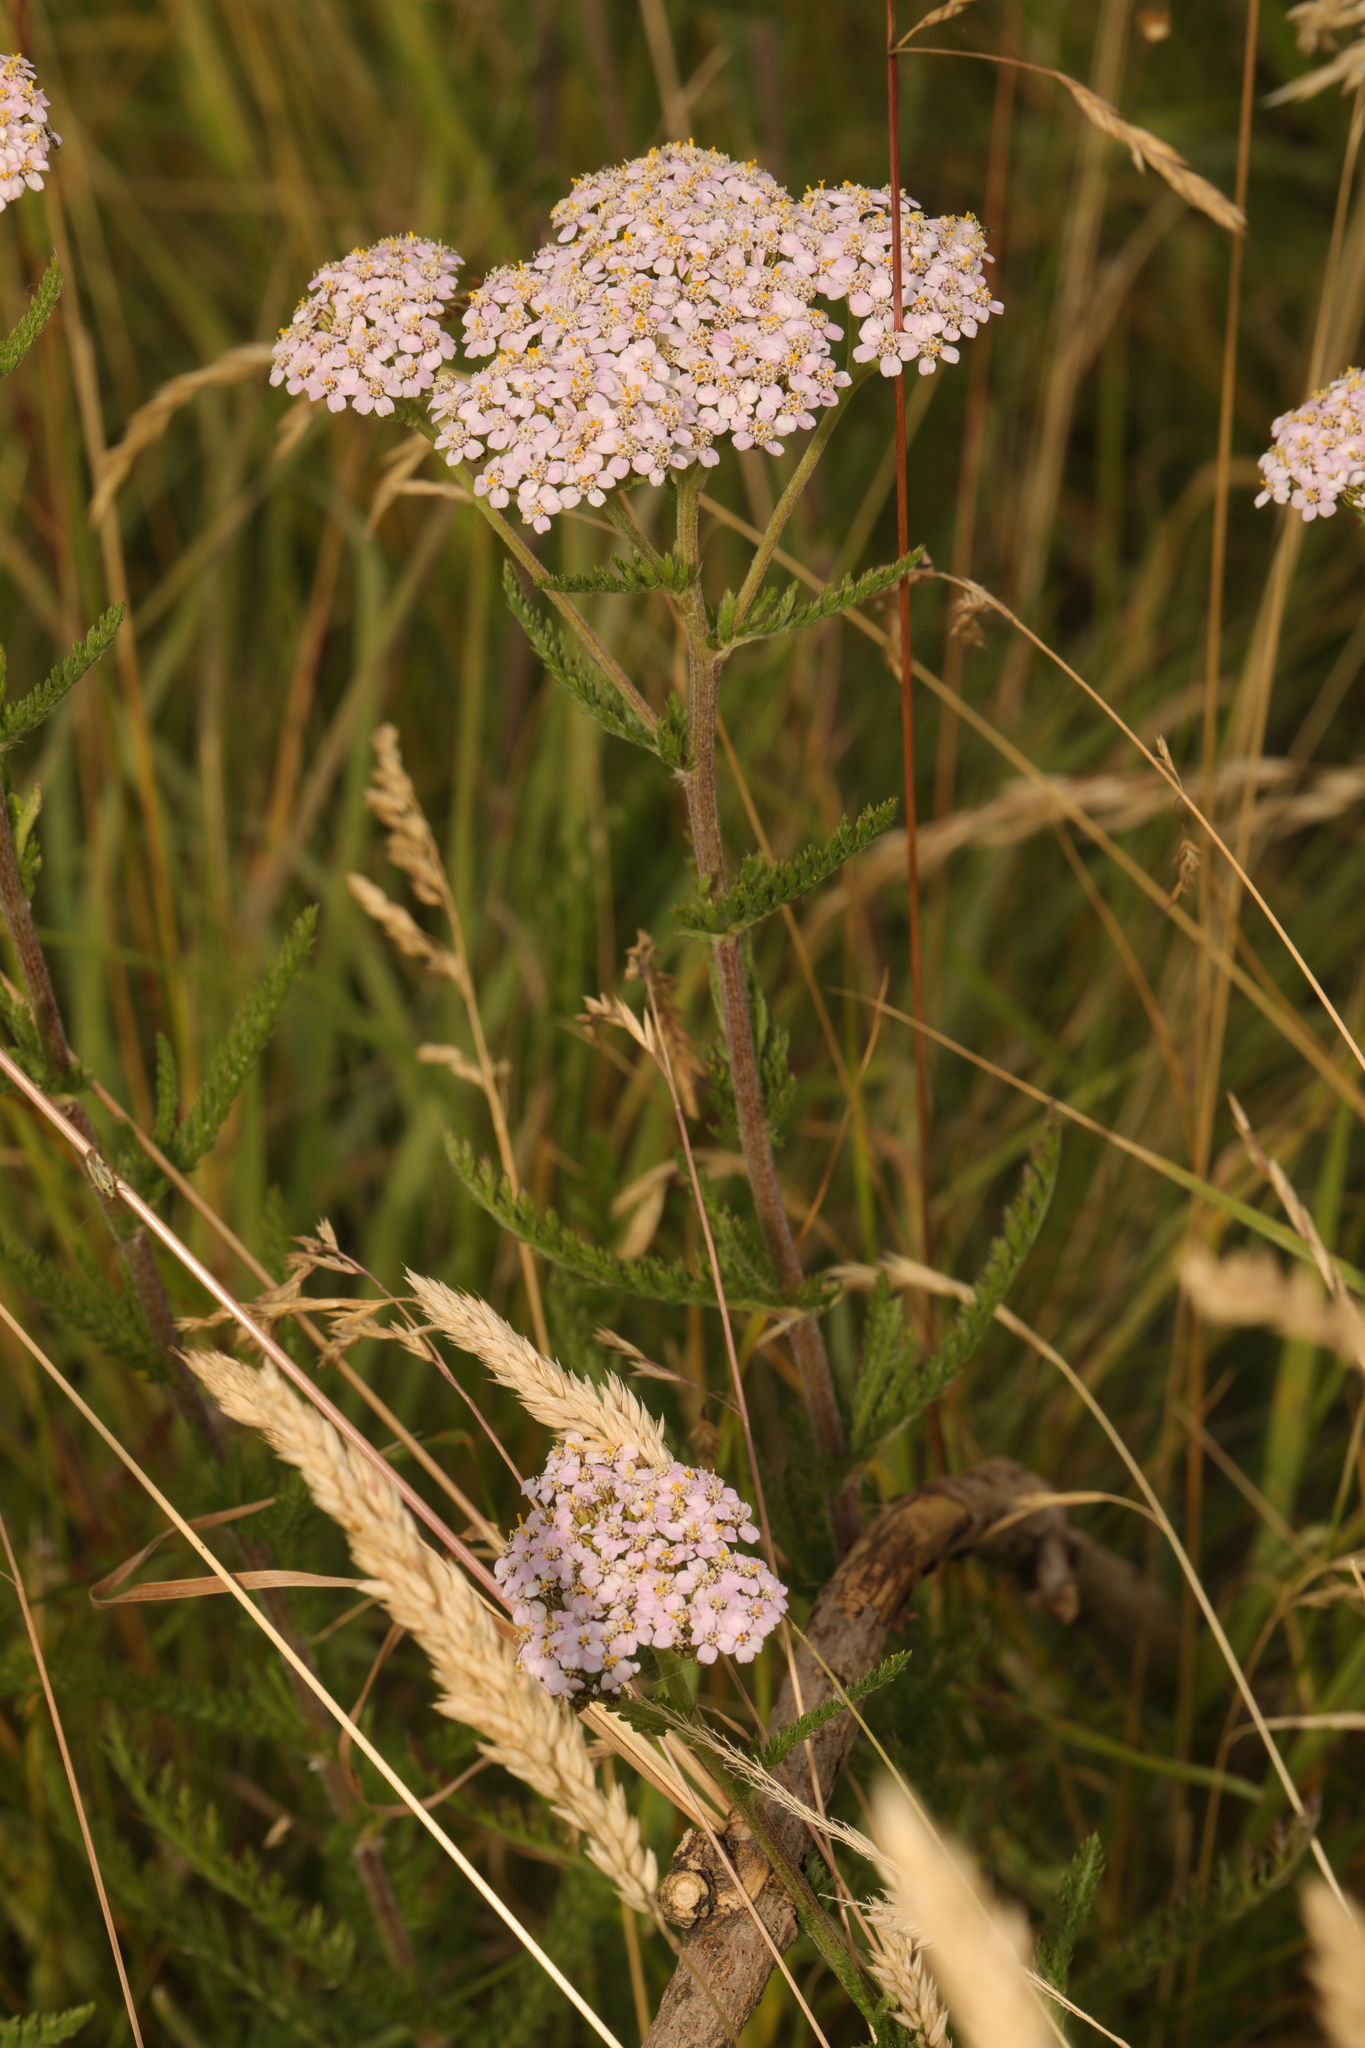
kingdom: Plantae
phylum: Tracheophyta
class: Magnoliopsida
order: Asterales
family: Asteraceae
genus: Achillea
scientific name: Achillea millefolium
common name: Yarrow
